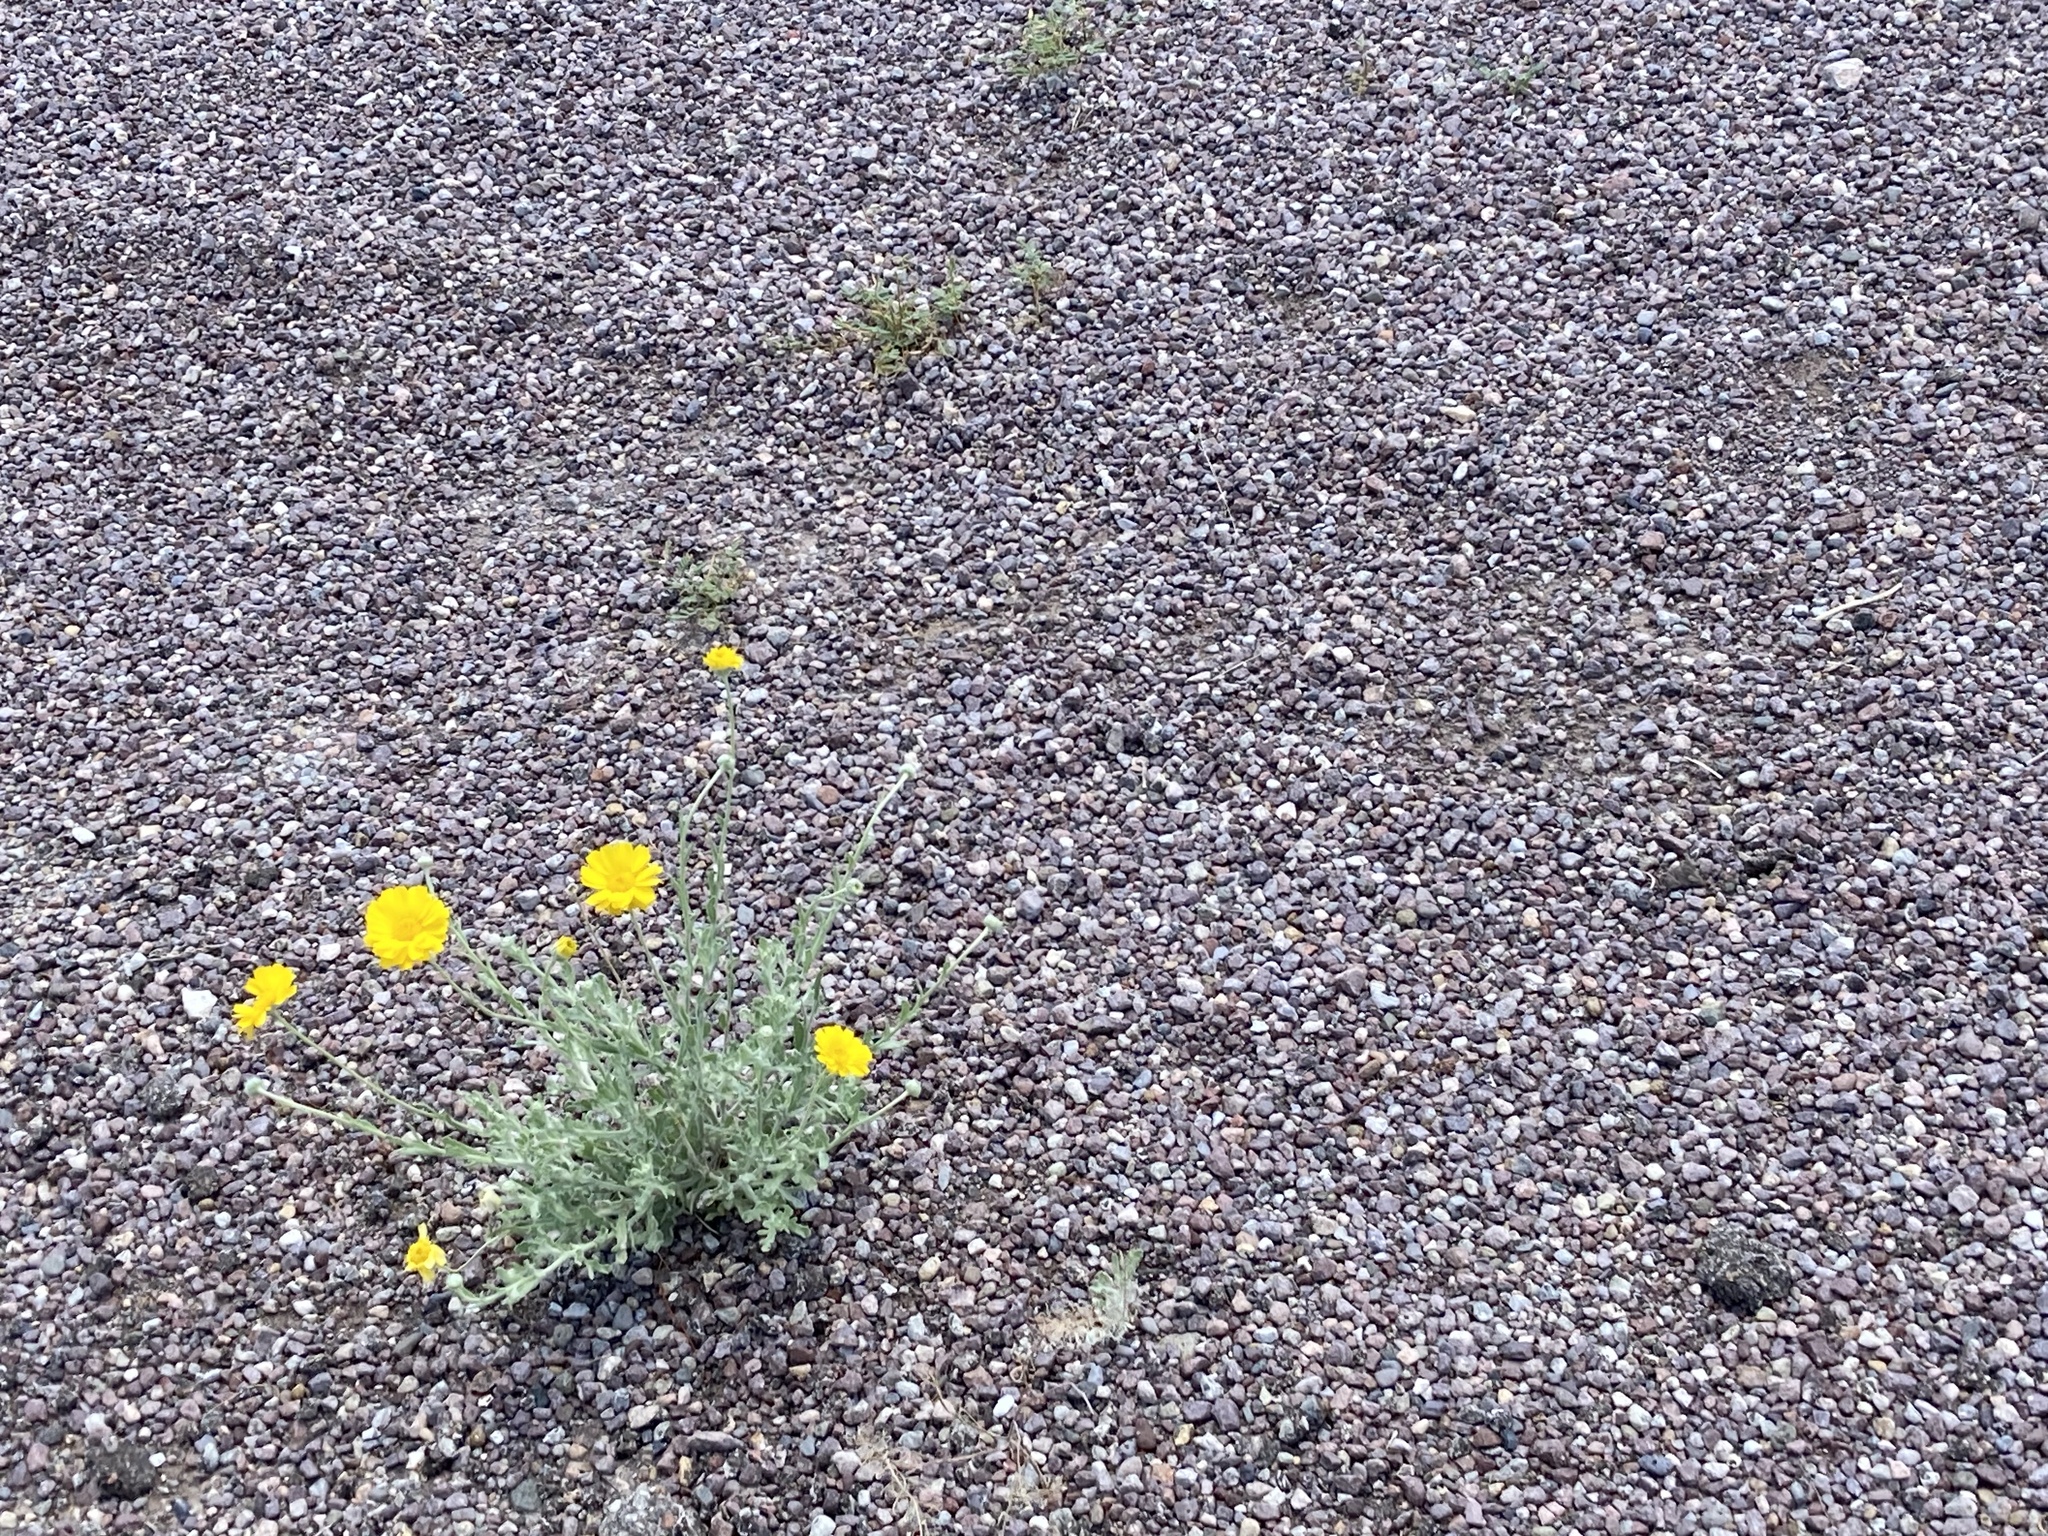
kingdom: Plantae
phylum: Tracheophyta
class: Magnoliopsida
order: Asterales
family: Asteraceae
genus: Baileya
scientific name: Baileya multiradiata
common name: Desert-marigold
